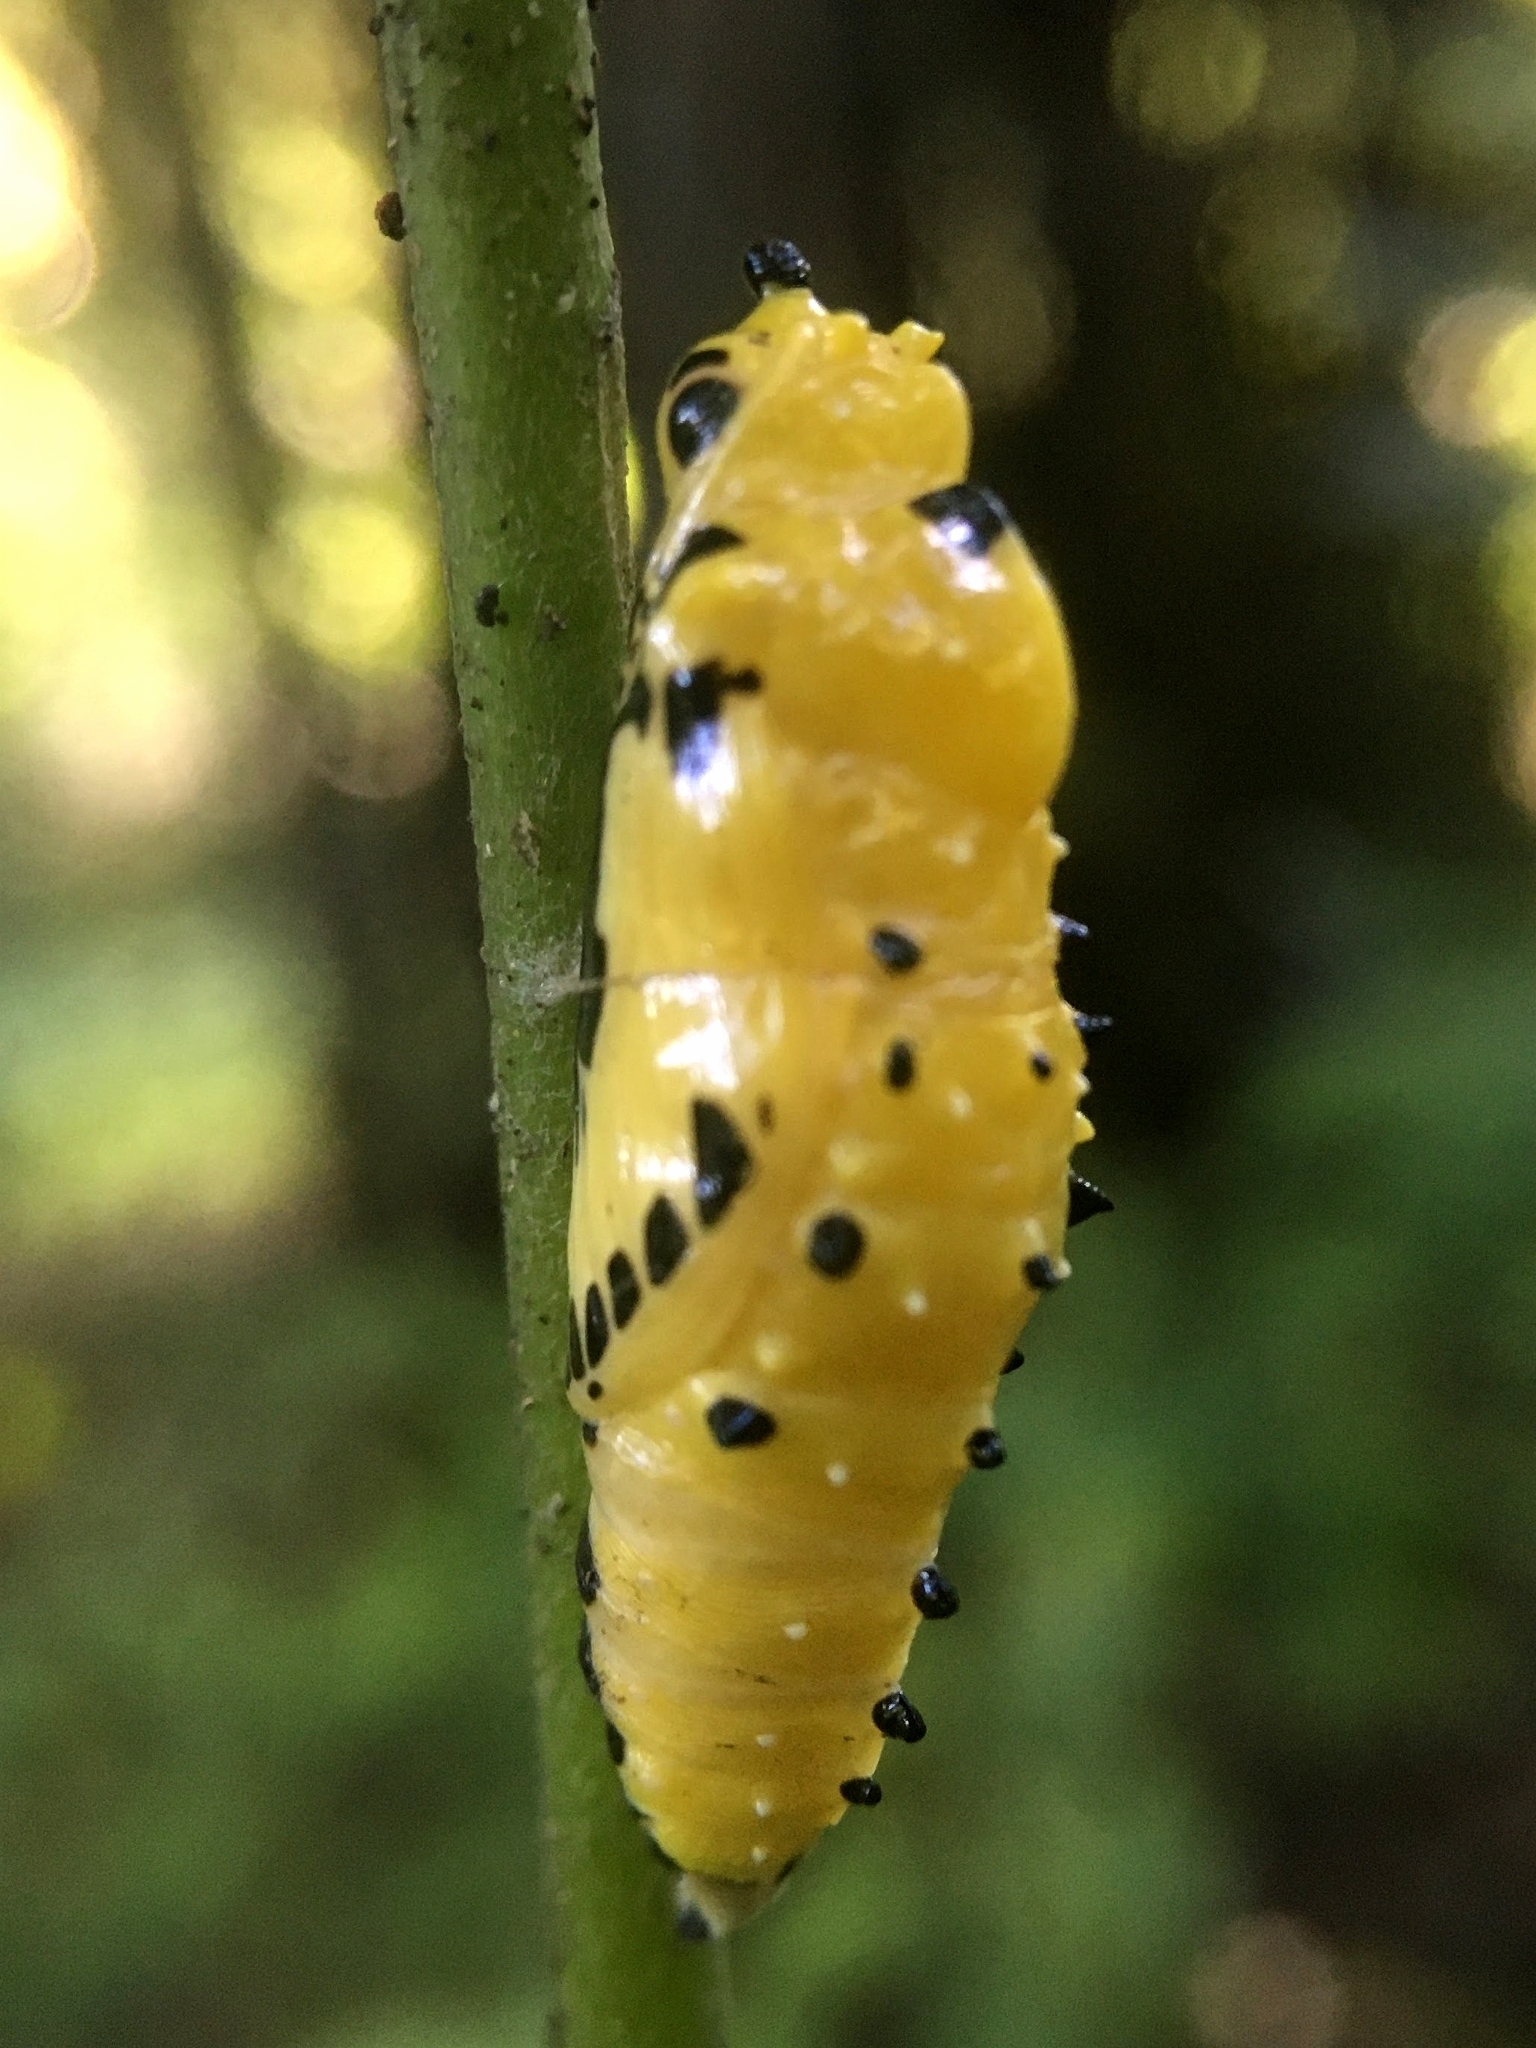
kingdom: Animalia
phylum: Arthropoda
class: Insecta
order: Lepidoptera
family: Pieridae
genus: Delias
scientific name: Delias eucharis
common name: Common jezebel
